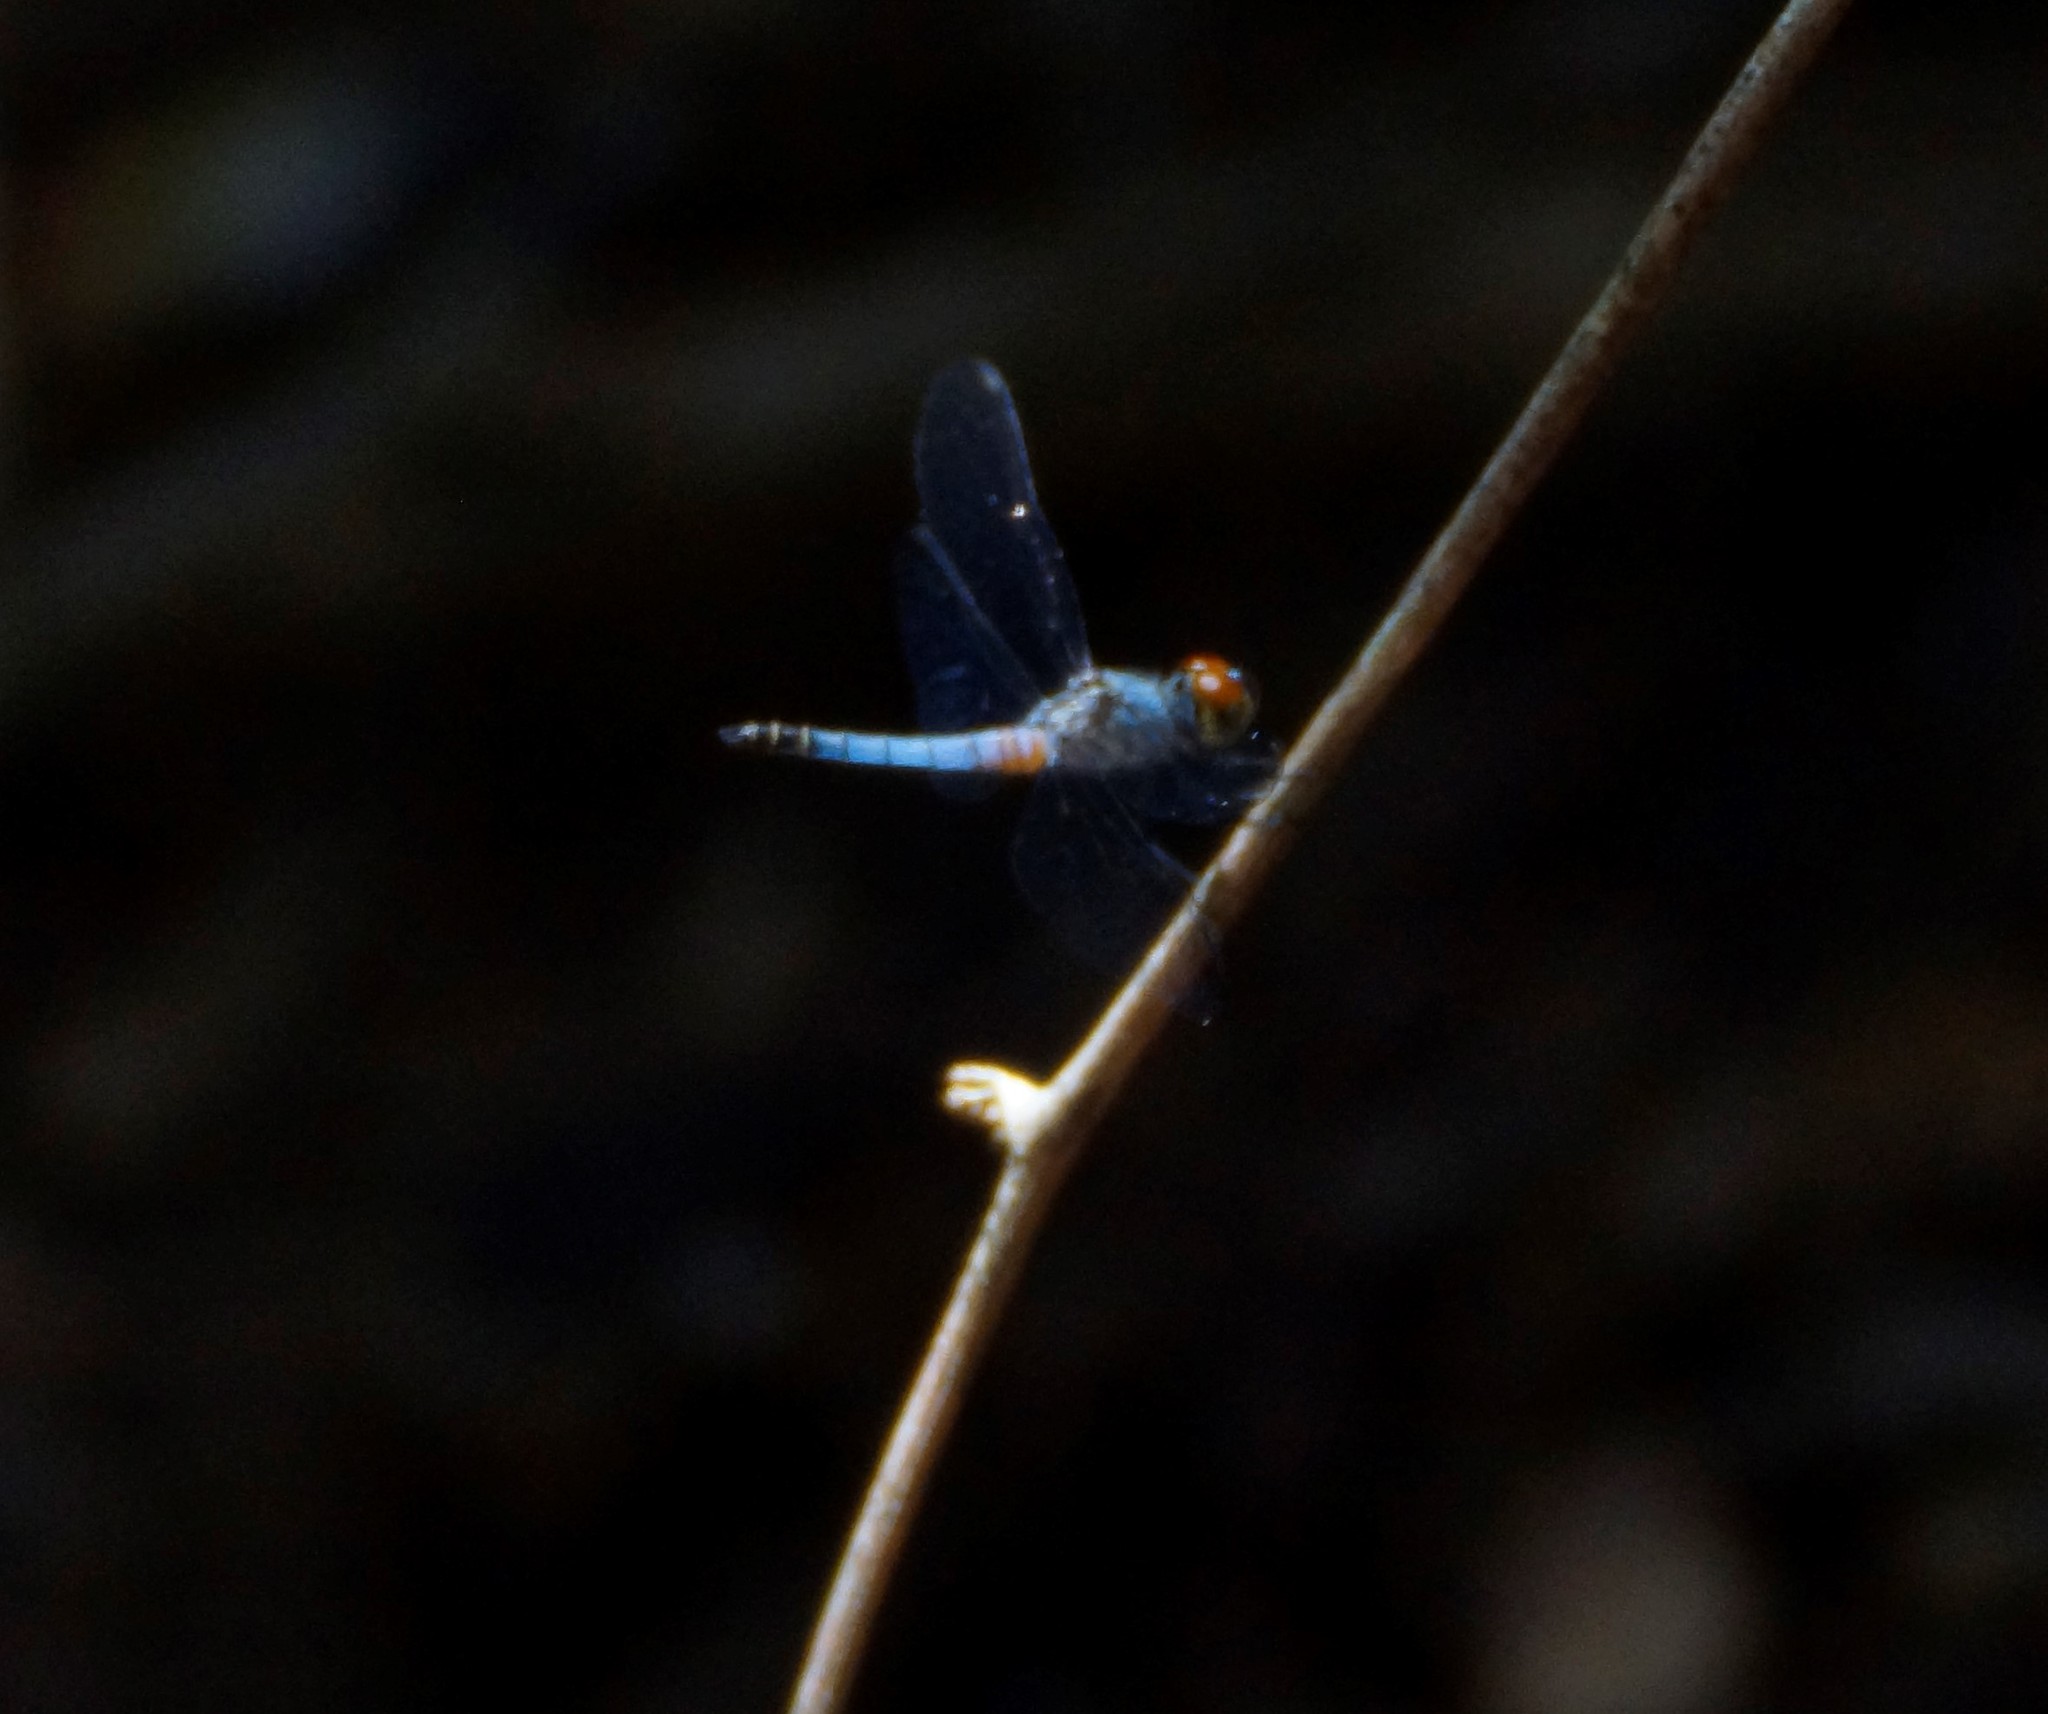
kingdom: Animalia
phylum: Arthropoda
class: Insecta
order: Odonata
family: Libellulidae
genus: Brachydiplax
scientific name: Brachydiplax denticauda
